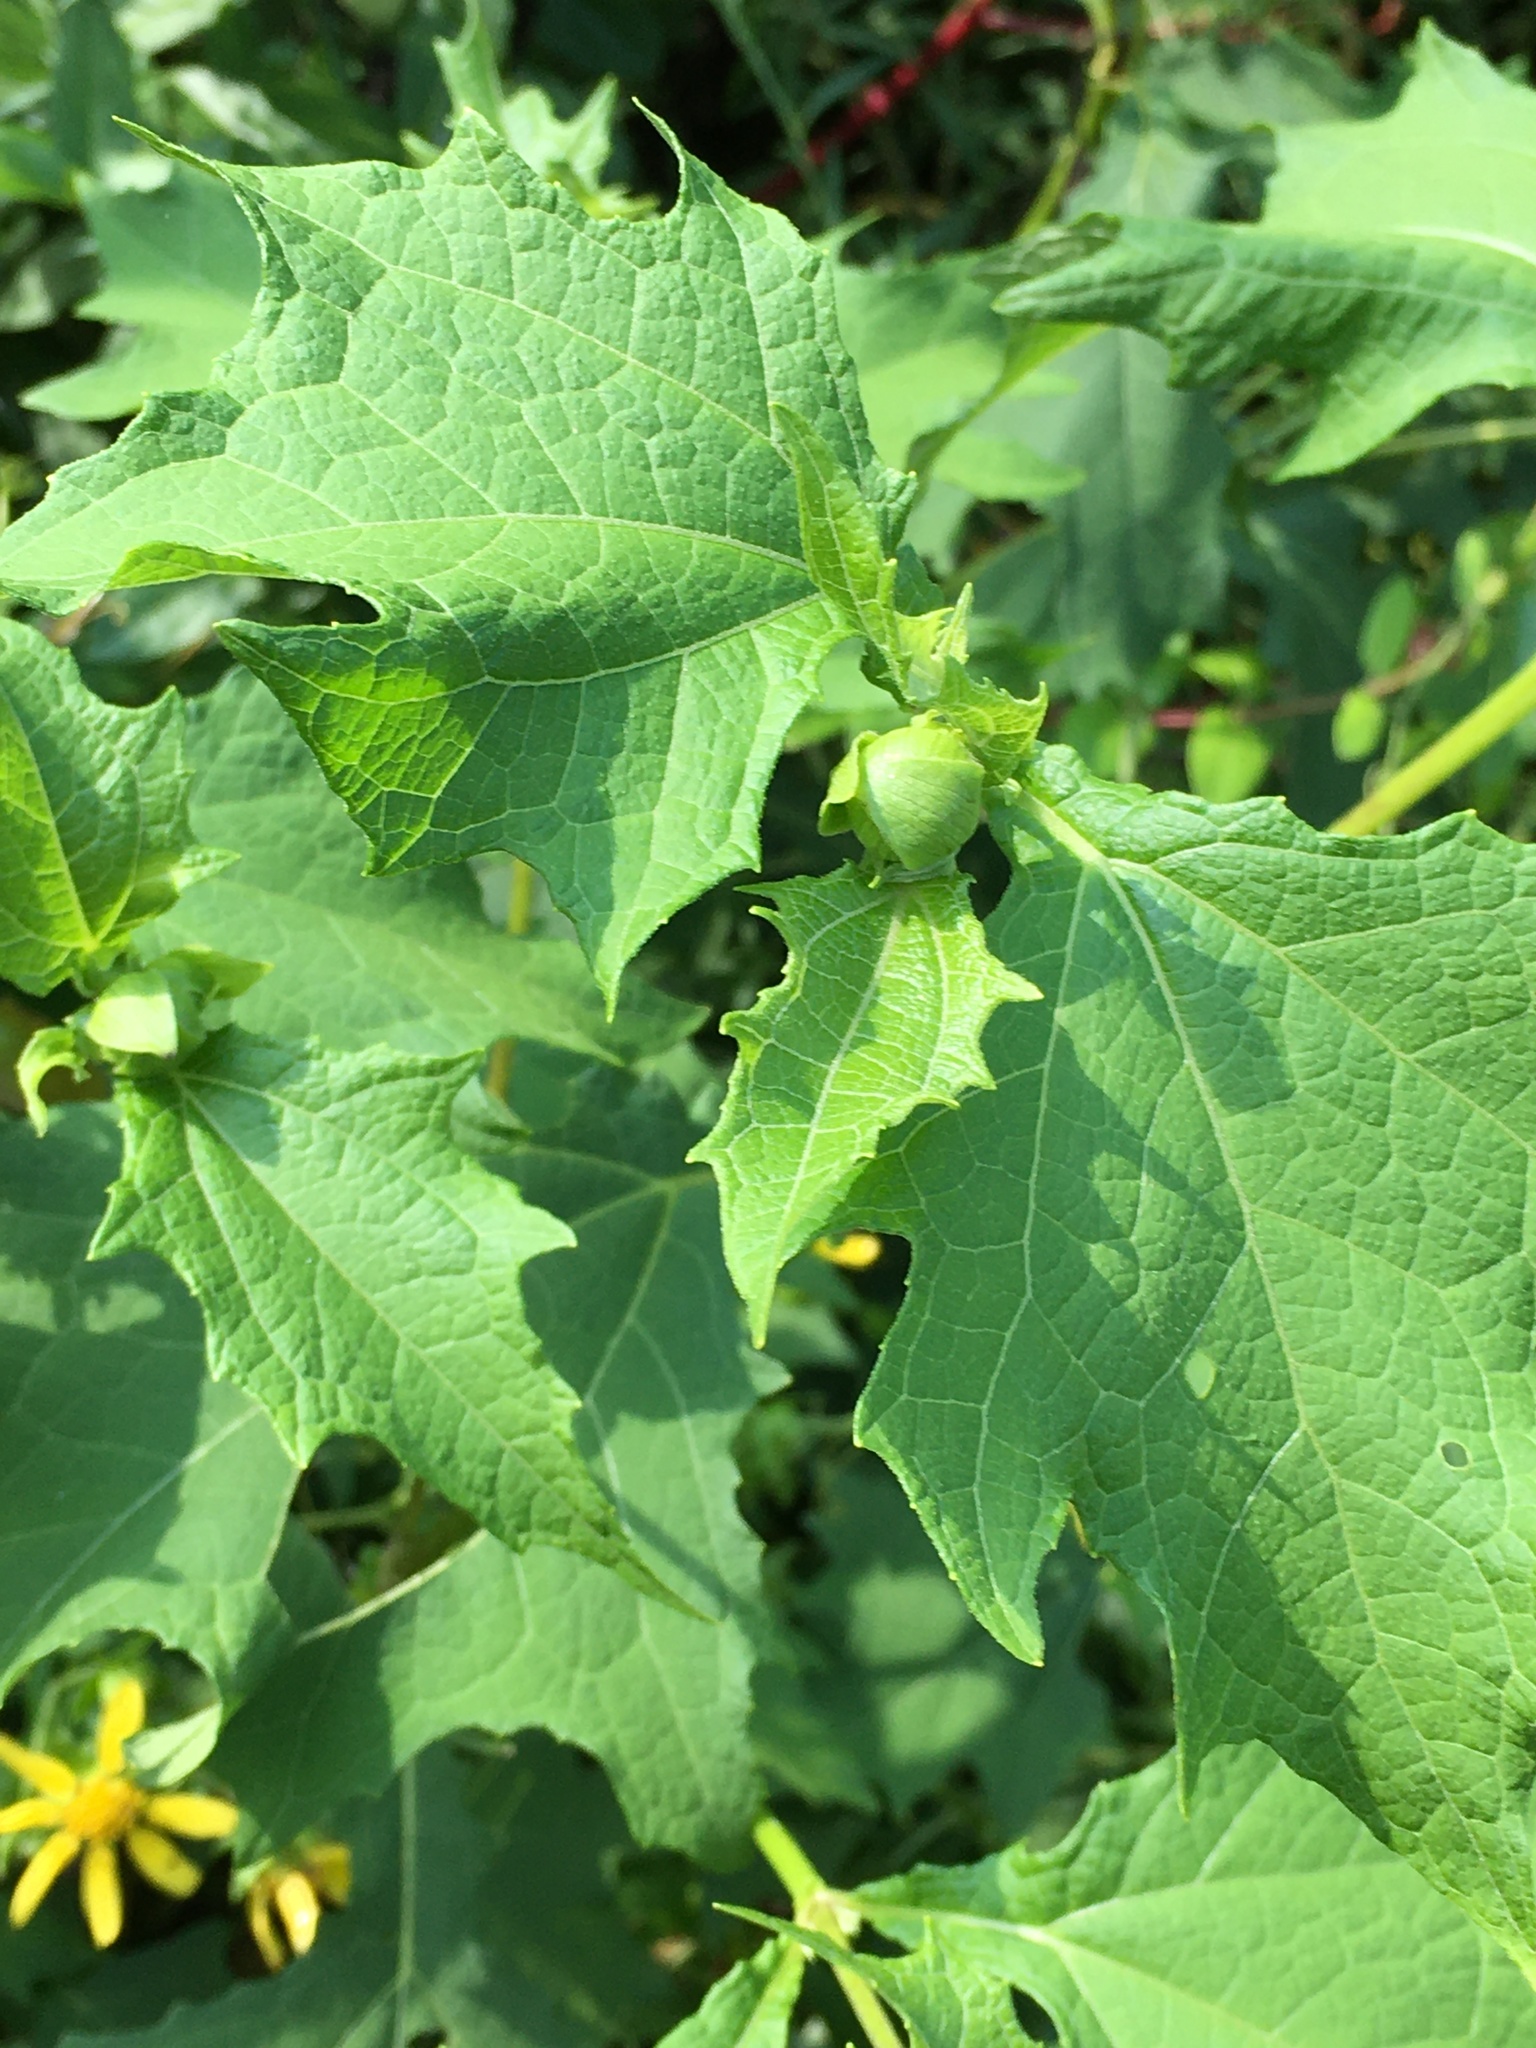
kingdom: Plantae
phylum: Tracheophyta
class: Magnoliopsida
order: Asterales
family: Asteraceae
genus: Smallanthus
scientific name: Smallanthus uvedalia
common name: Bear's-foot
